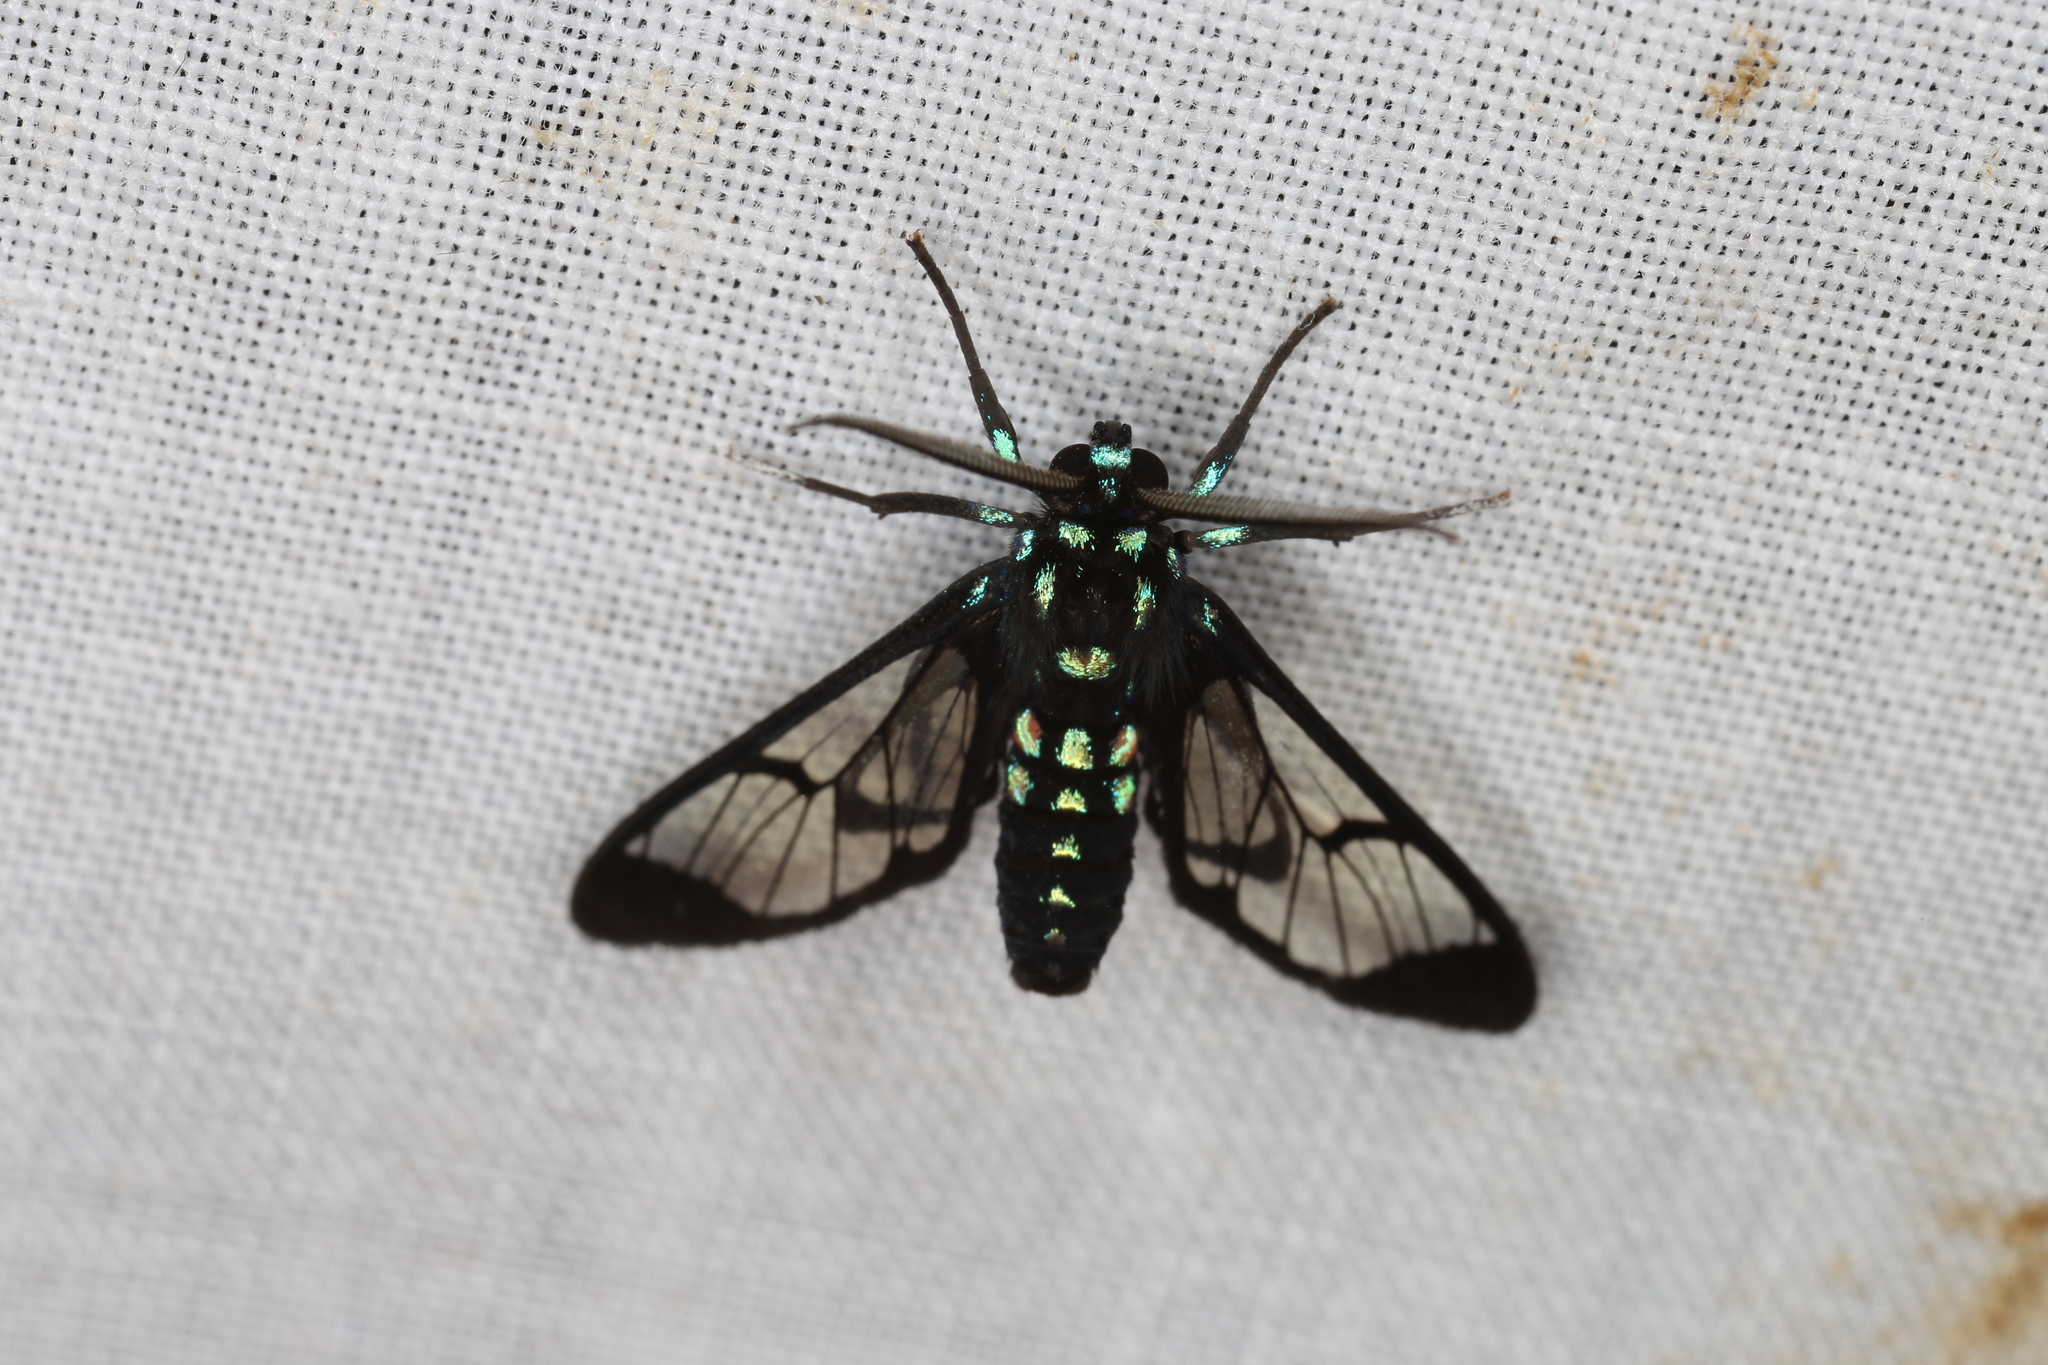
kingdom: Animalia
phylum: Arthropoda
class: Insecta
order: Lepidoptera
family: Erebidae
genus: Cosmosoma
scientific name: Cosmosoma xanthosticta
